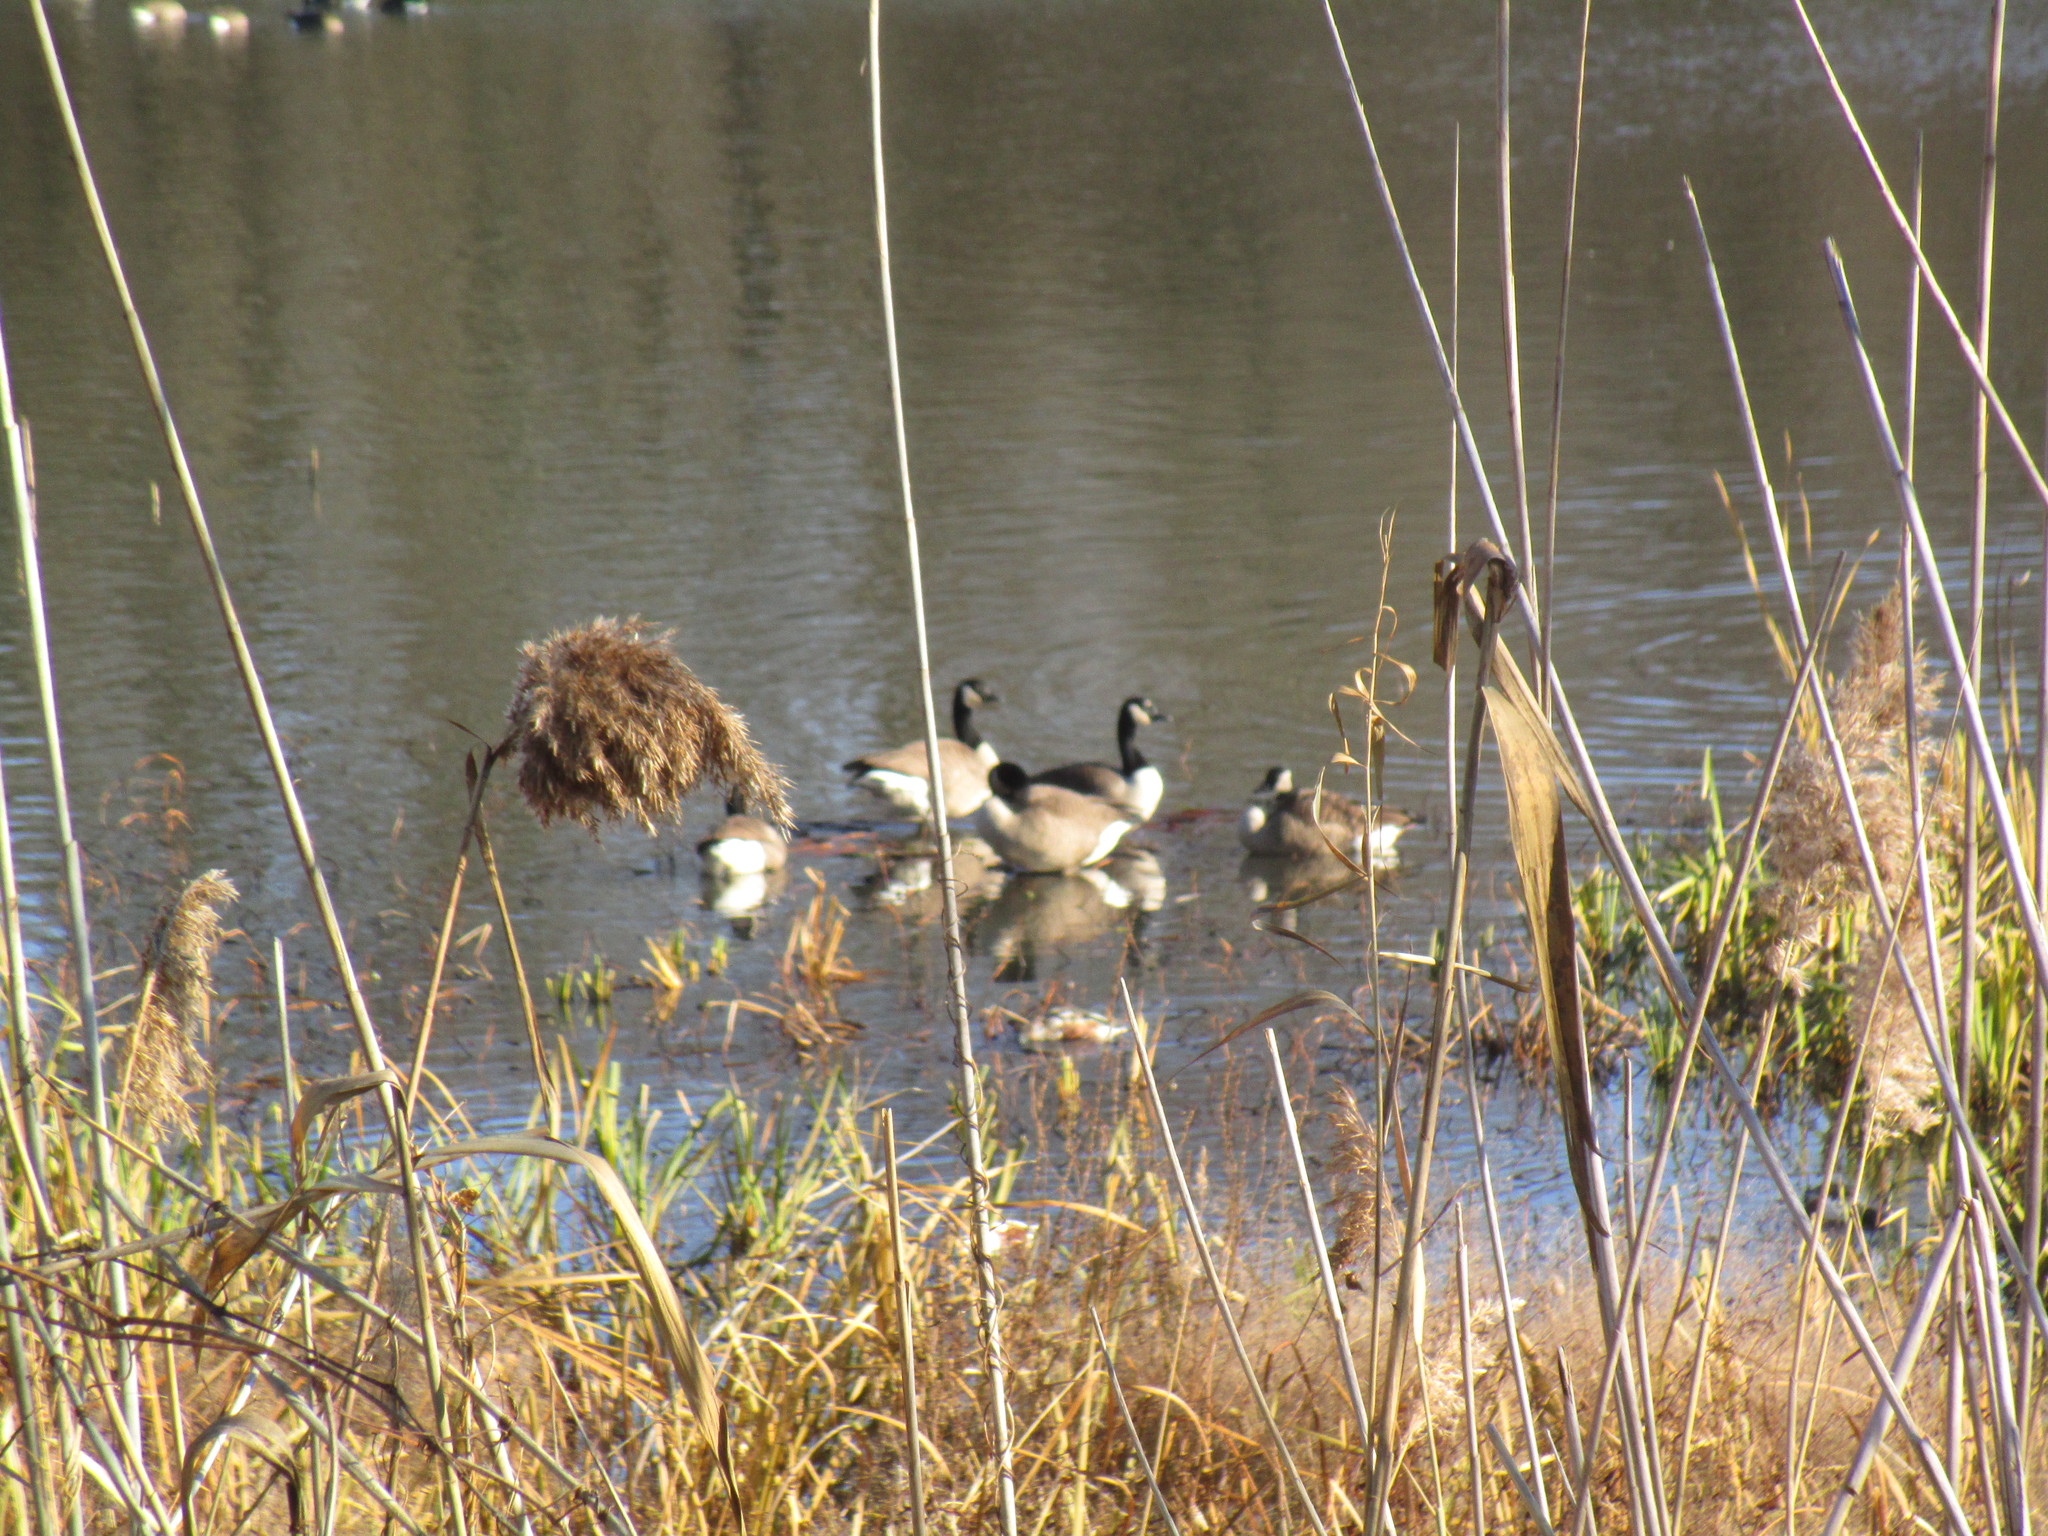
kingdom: Animalia
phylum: Chordata
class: Aves
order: Anseriformes
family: Anatidae
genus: Branta
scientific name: Branta canadensis
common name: Canada goose
